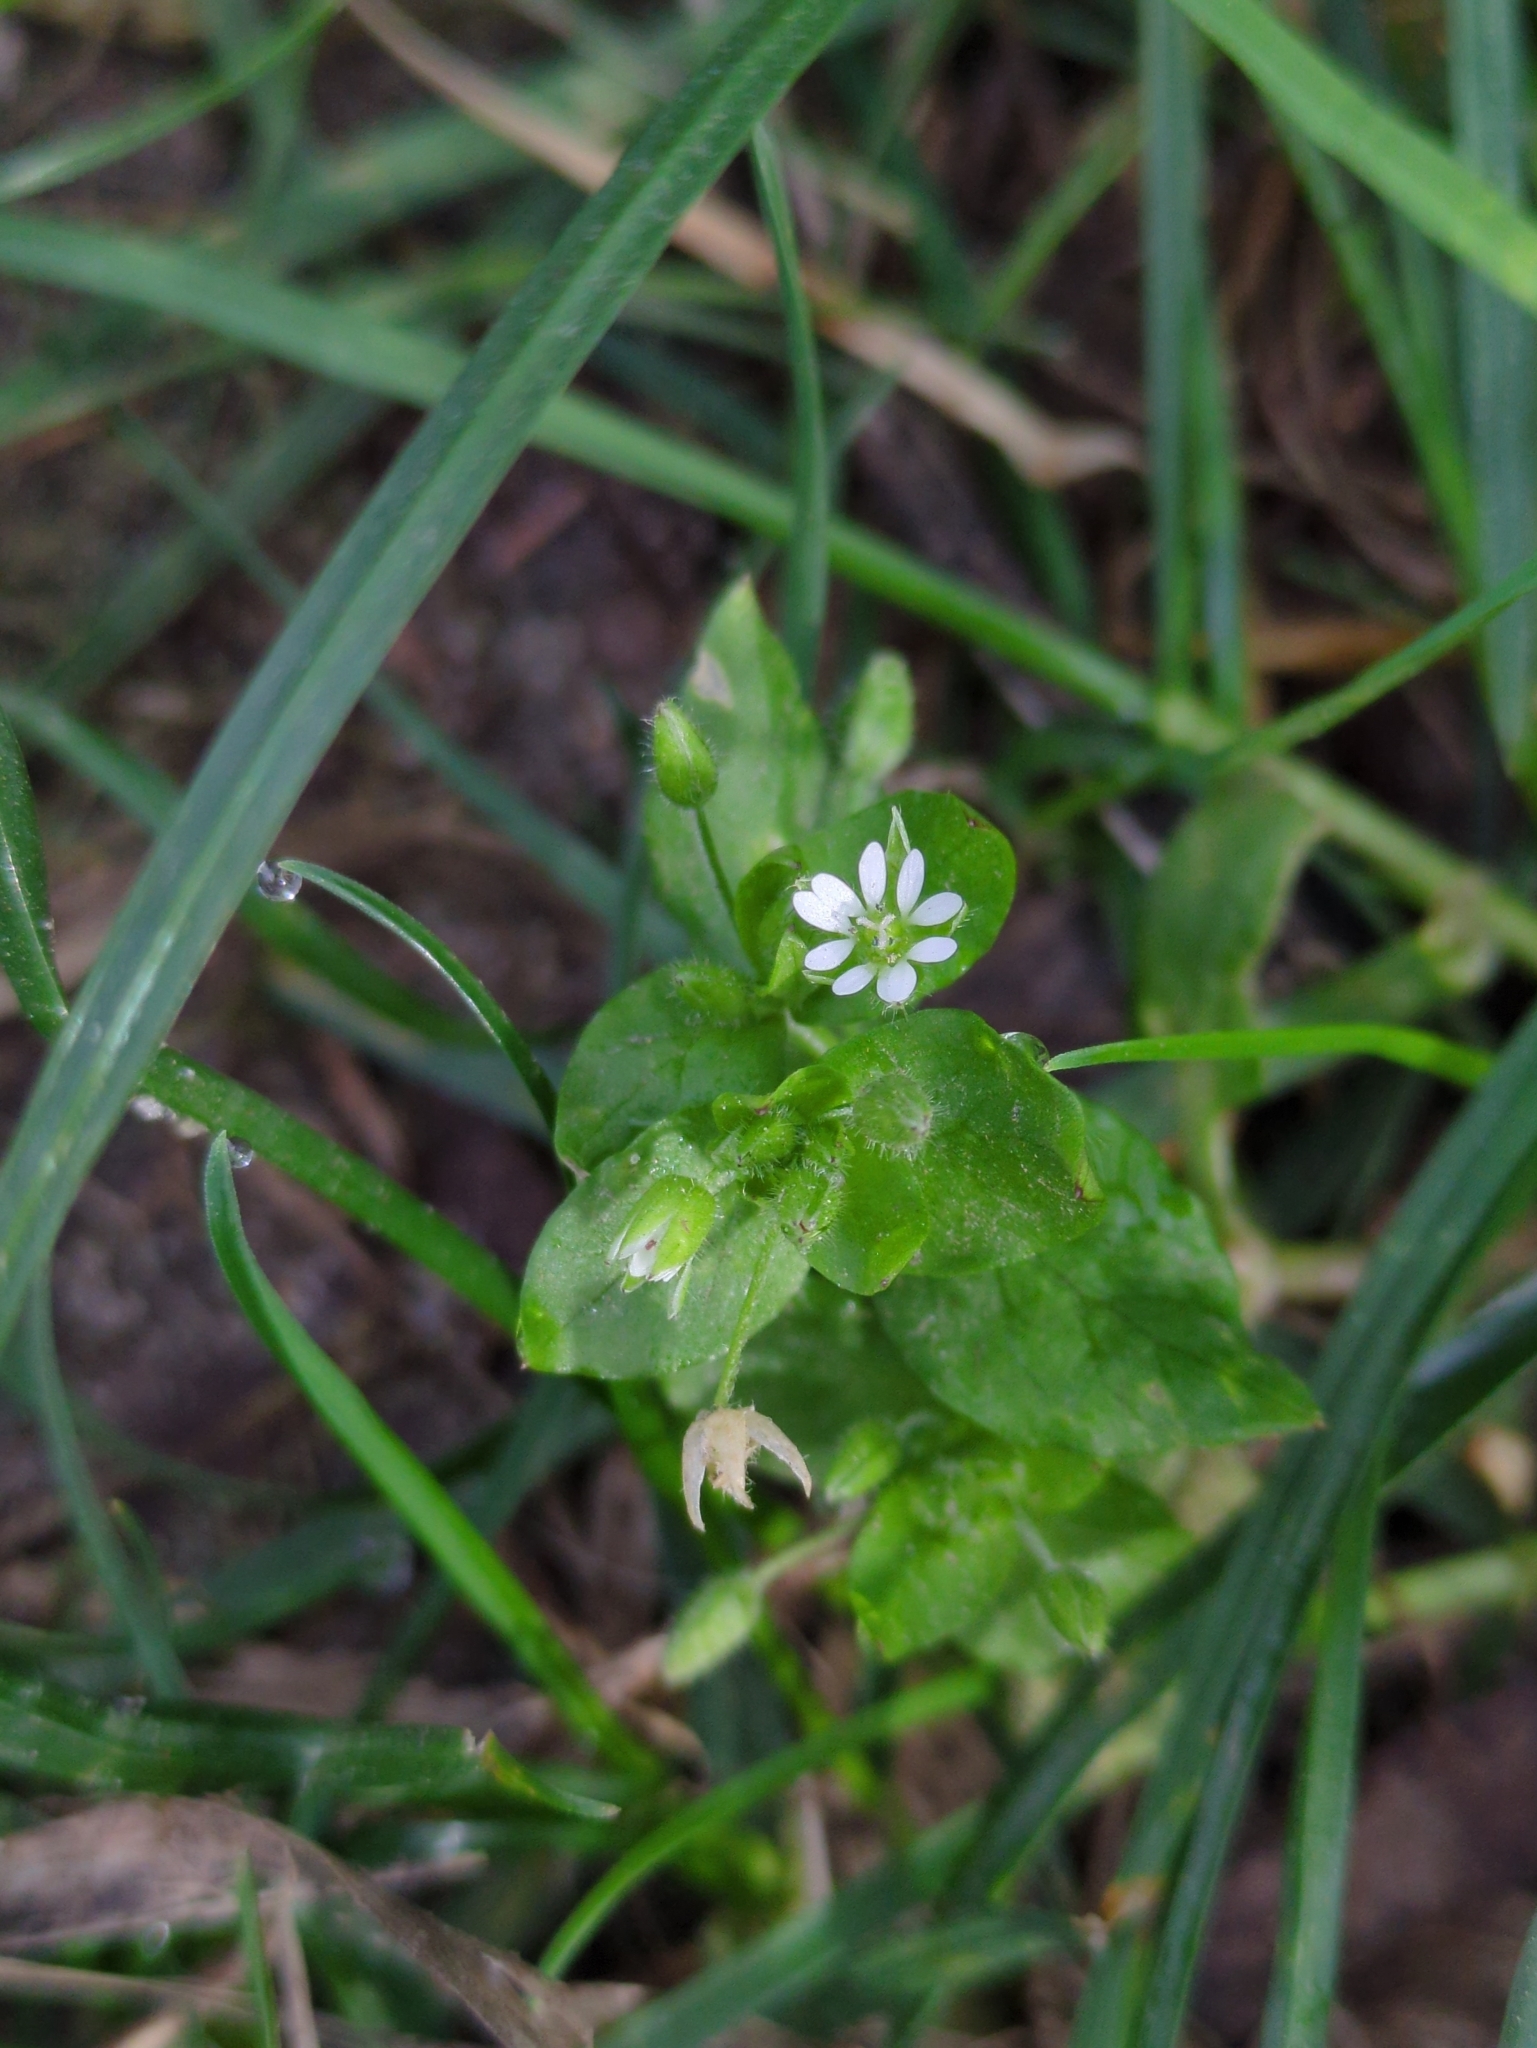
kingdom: Plantae
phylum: Tracheophyta
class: Magnoliopsida
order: Caryophyllales
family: Caryophyllaceae
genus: Stellaria
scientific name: Stellaria media
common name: Common chickweed
